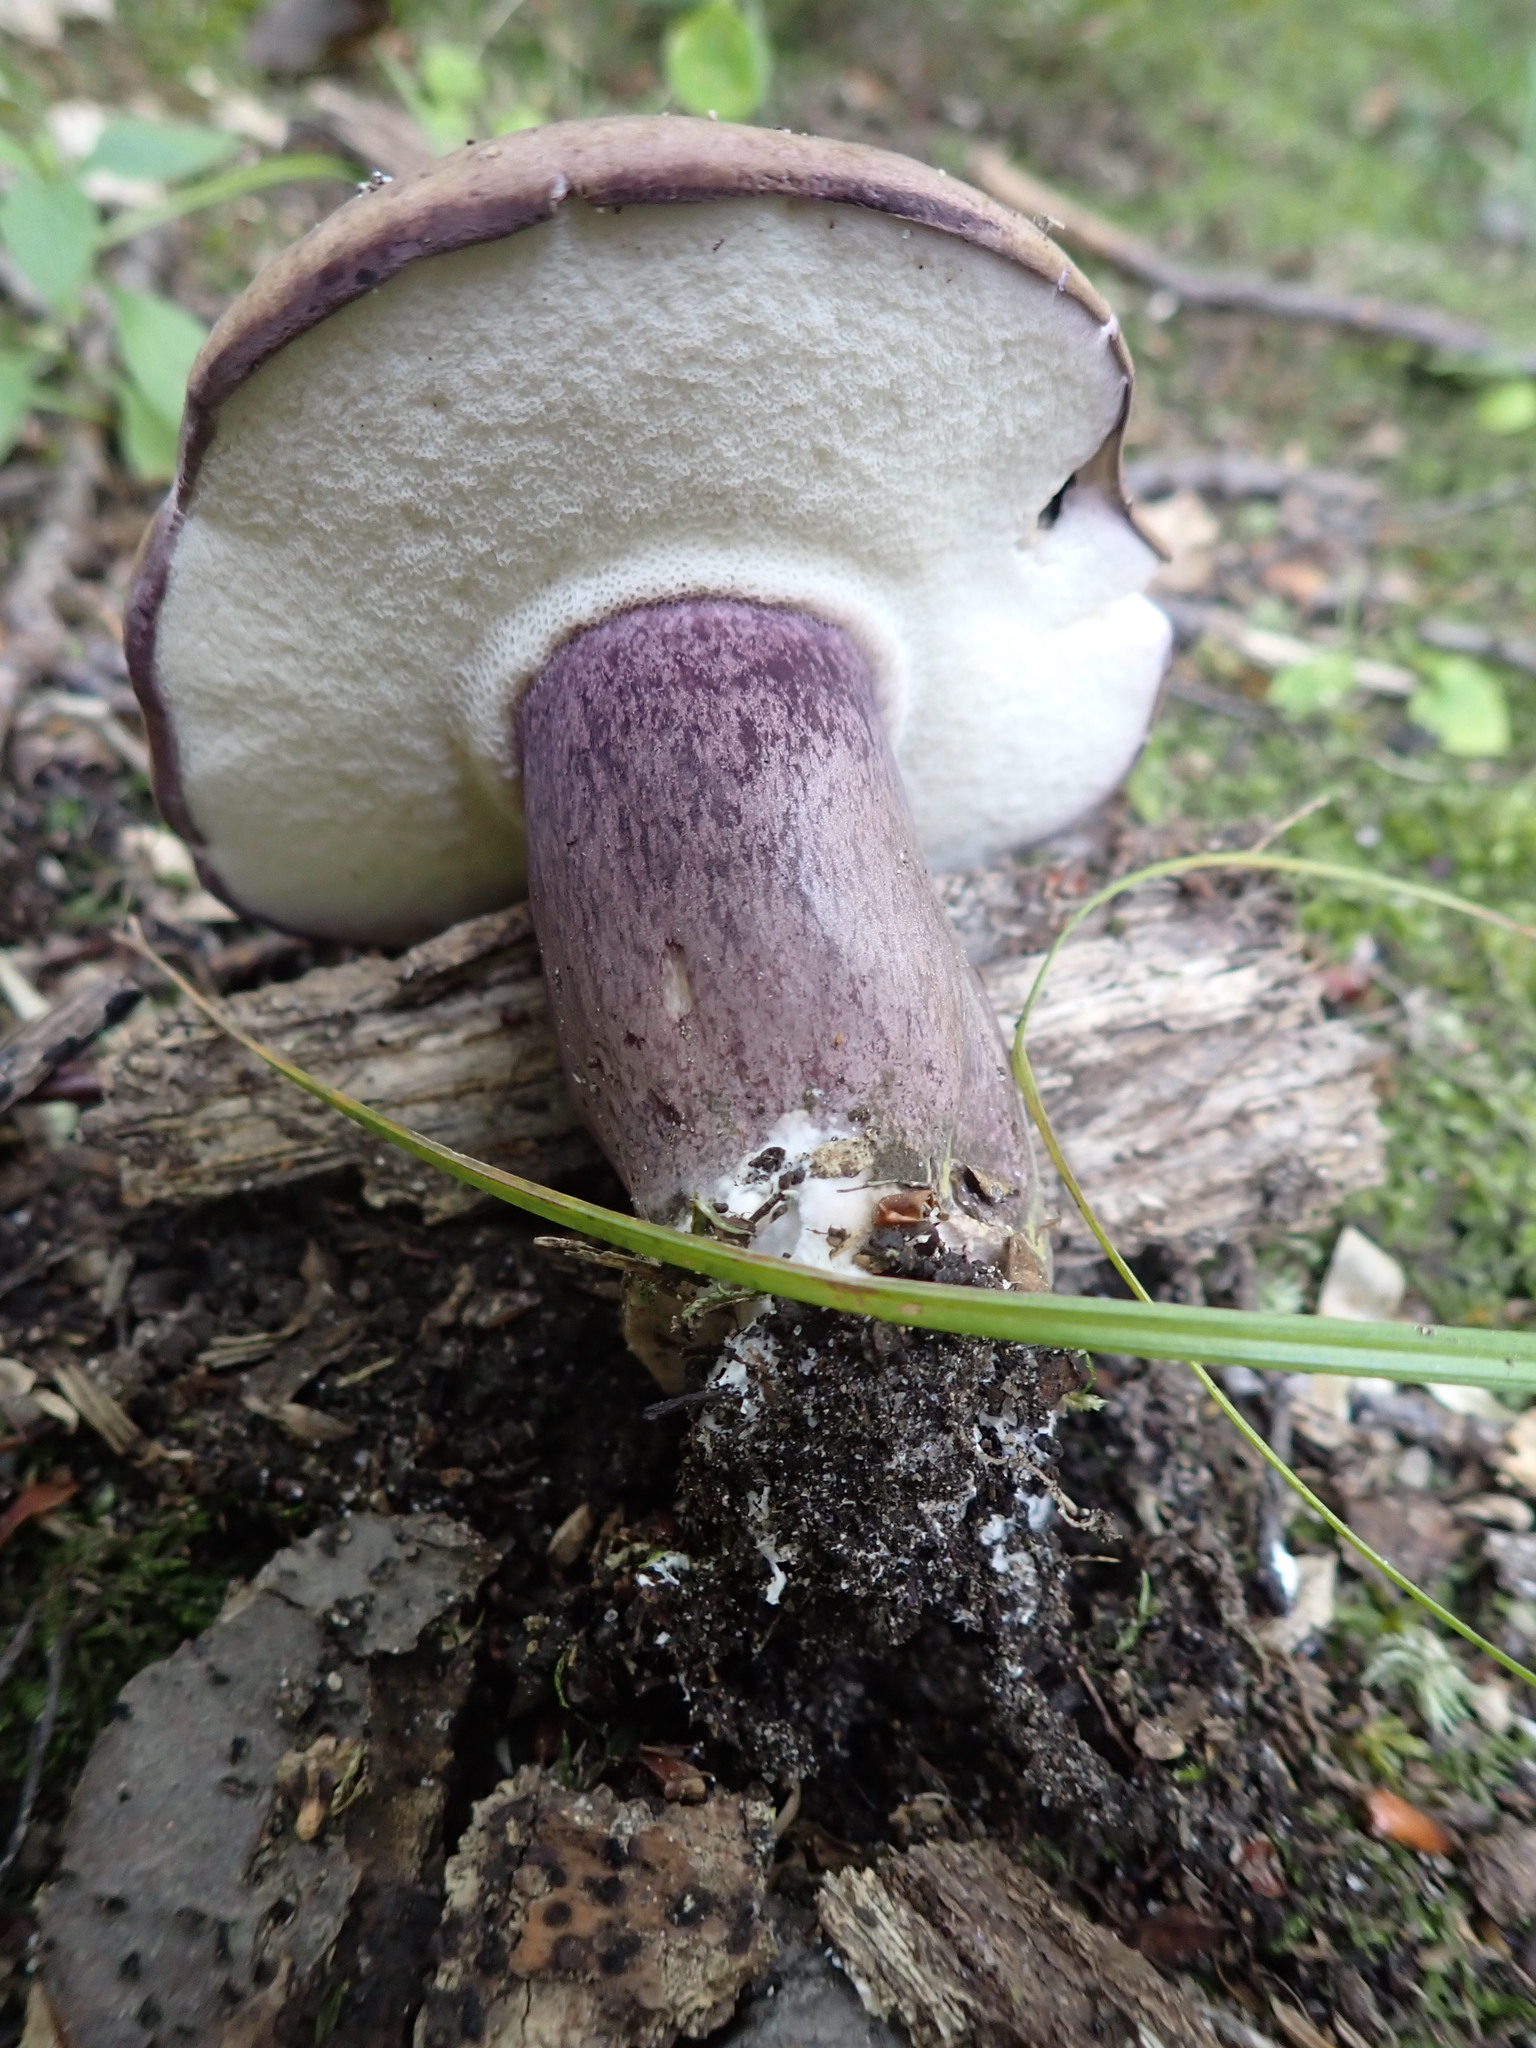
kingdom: Fungi
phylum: Basidiomycota
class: Agaricomycetes
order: Boletales
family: Boletaceae
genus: Tylopilus
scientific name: Tylopilus plumbeoviolaceus
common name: Violet gray bolete
